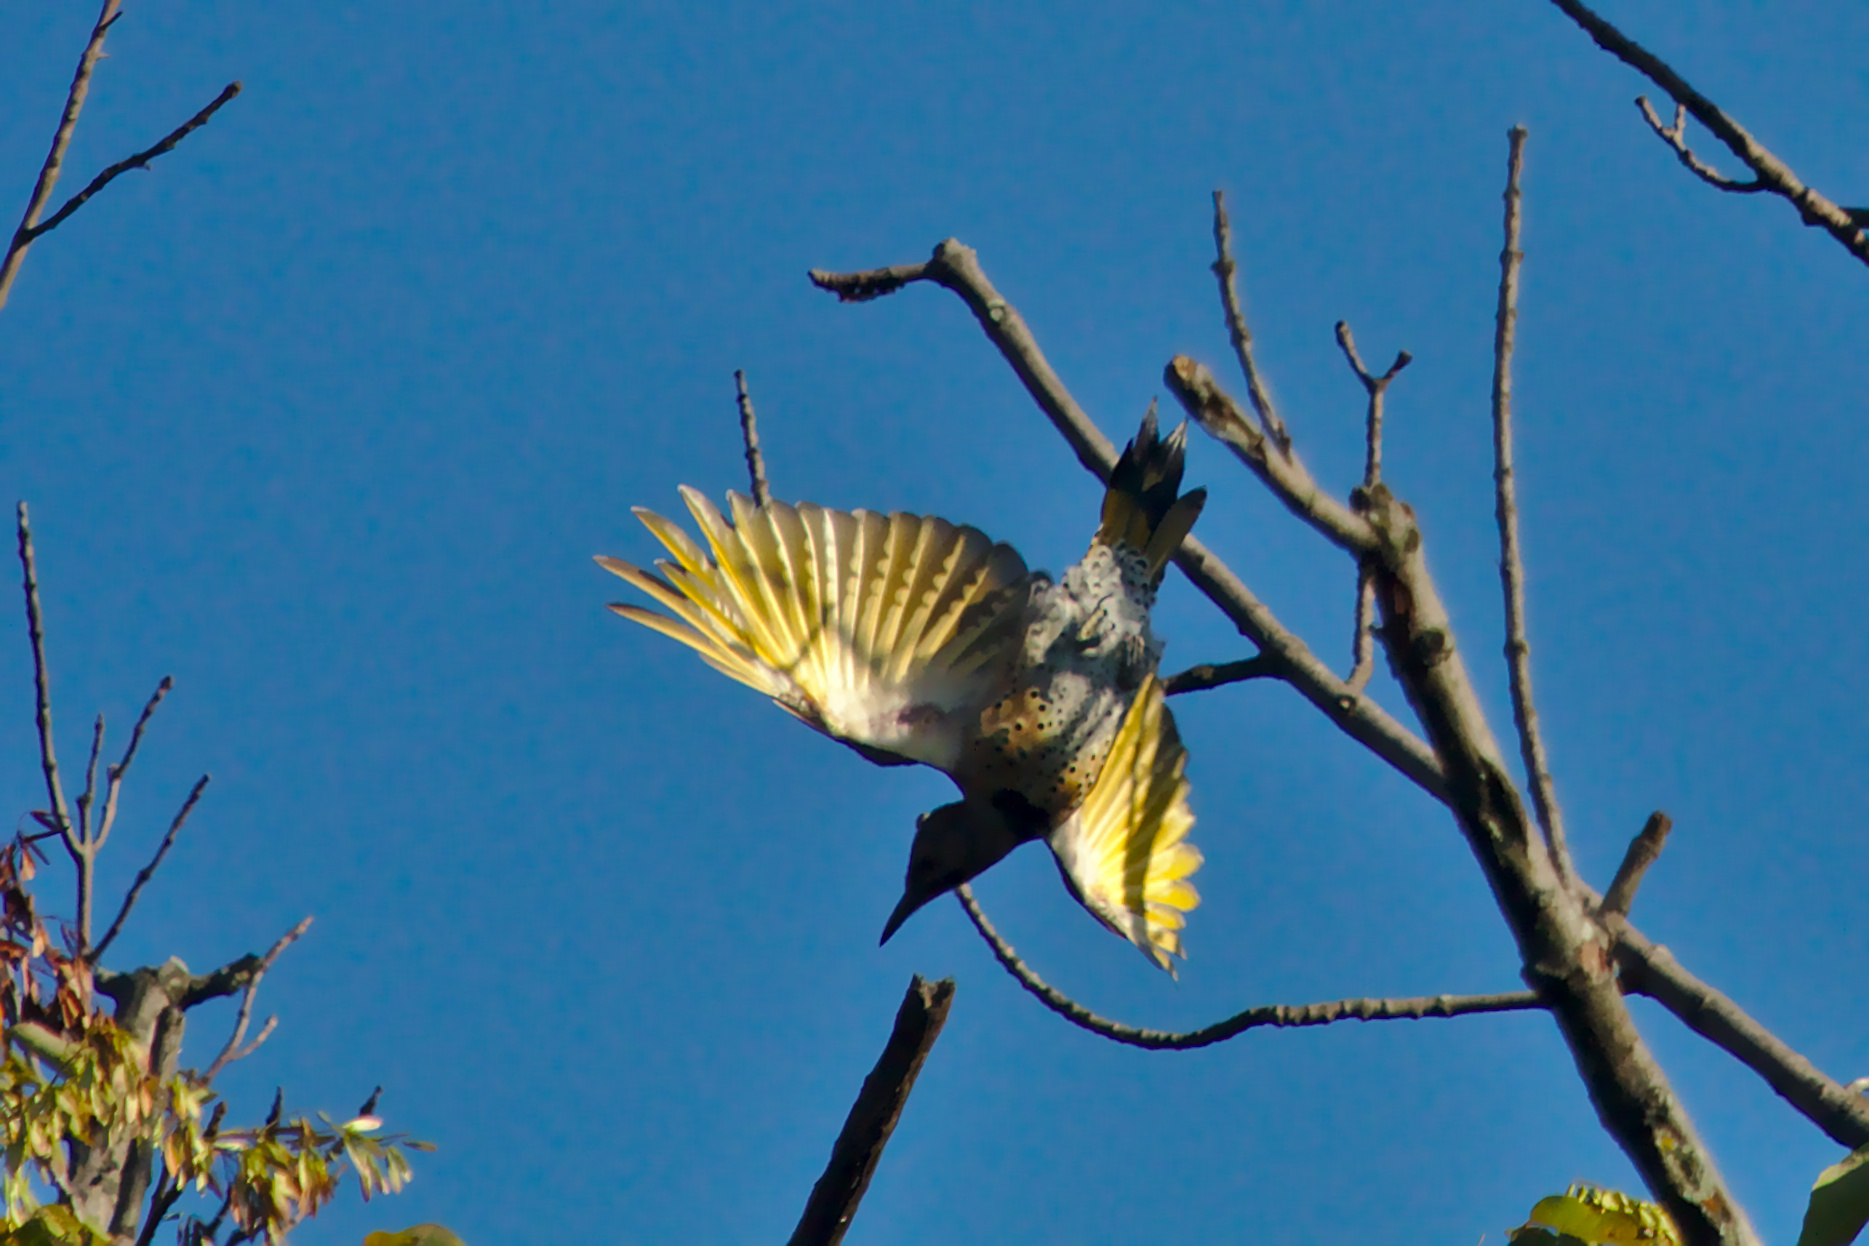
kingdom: Animalia
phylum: Chordata
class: Aves
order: Piciformes
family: Picidae
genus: Colaptes
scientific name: Colaptes auratus
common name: Northern flicker
